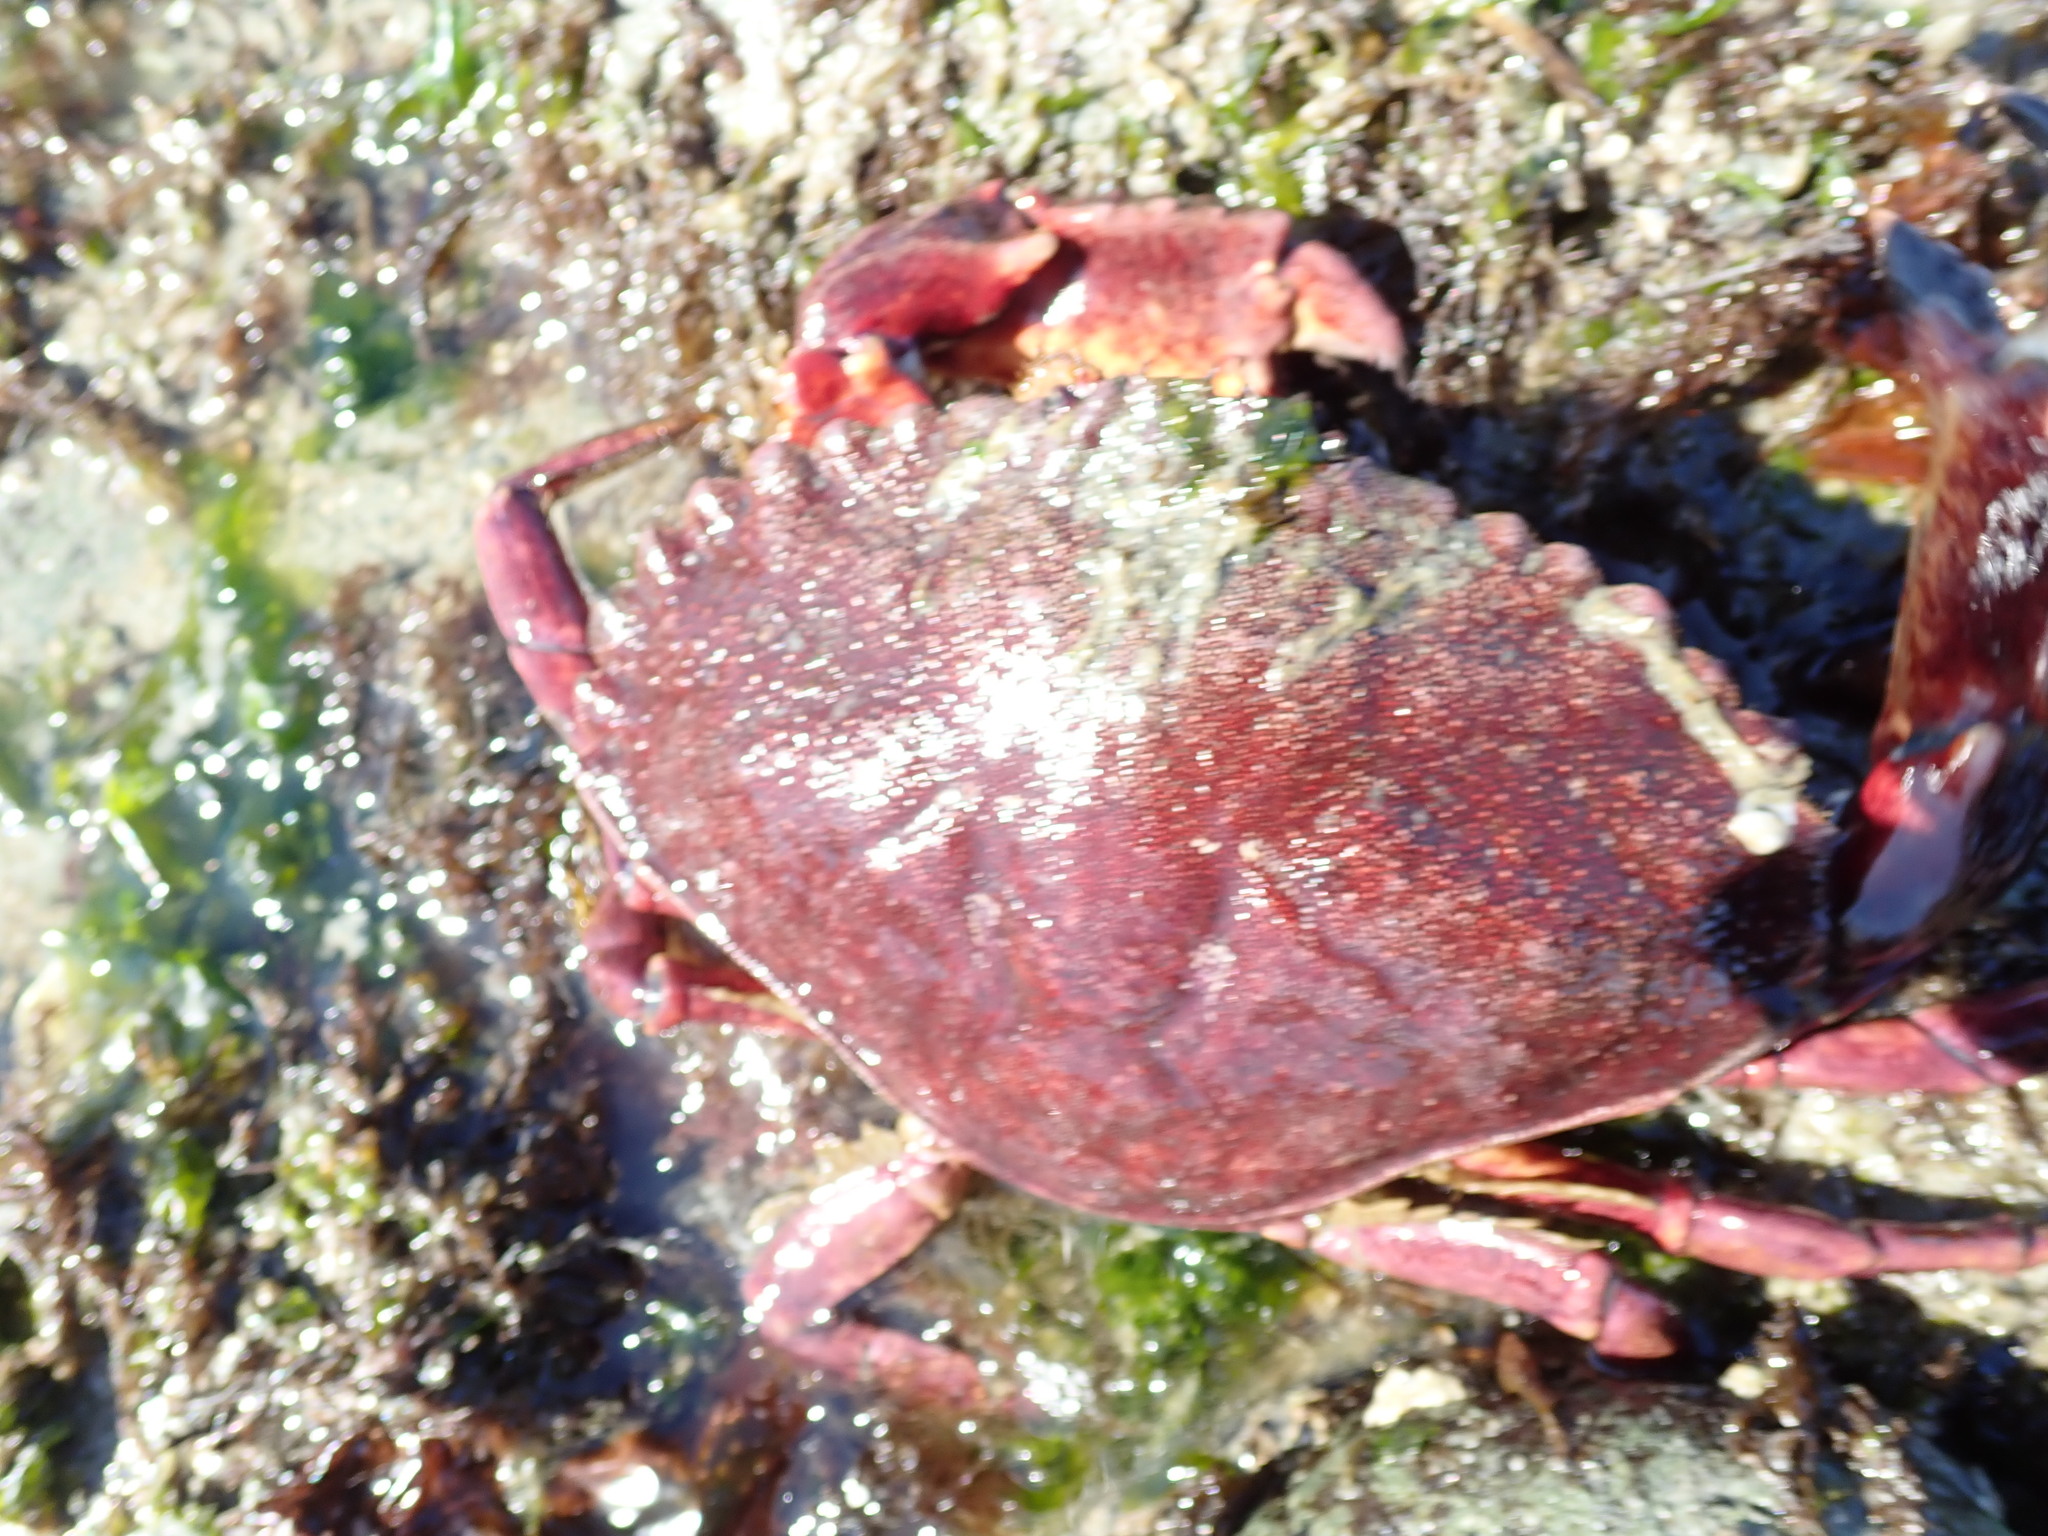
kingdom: Animalia
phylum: Arthropoda
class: Malacostraca
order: Decapoda
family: Cancridae
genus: Cancer
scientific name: Cancer productus
